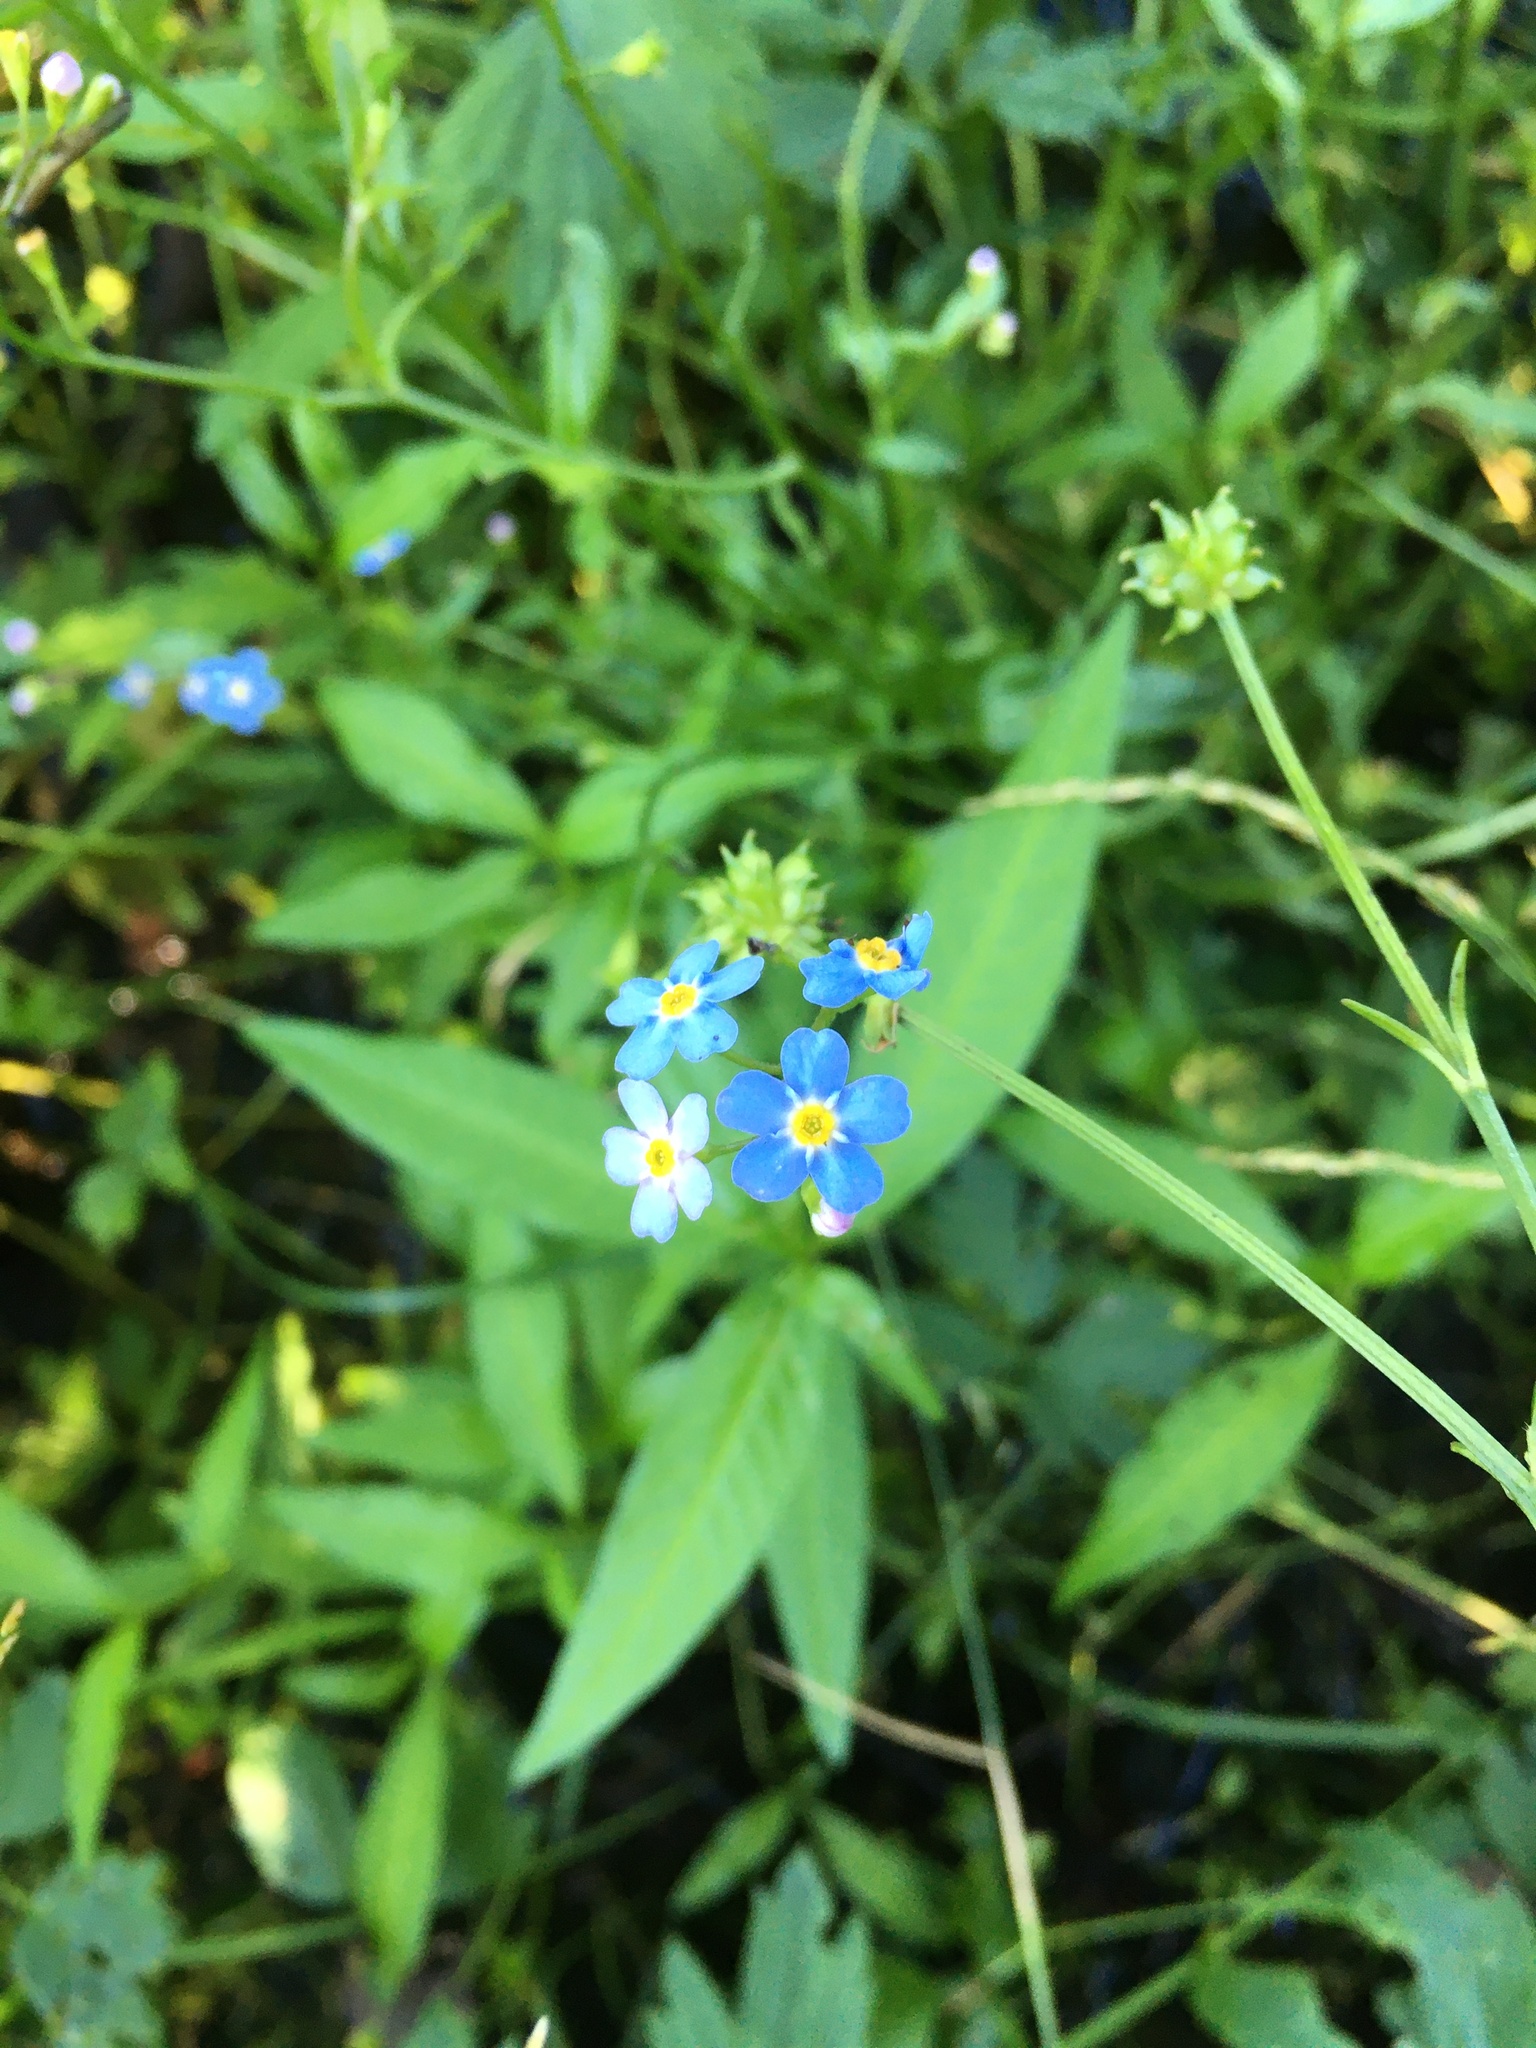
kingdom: Plantae
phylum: Tracheophyta
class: Magnoliopsida
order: Boraginales
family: Boraginaceae
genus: Myosotis
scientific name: Myosotis scorpioides
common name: Water forget-me-not
